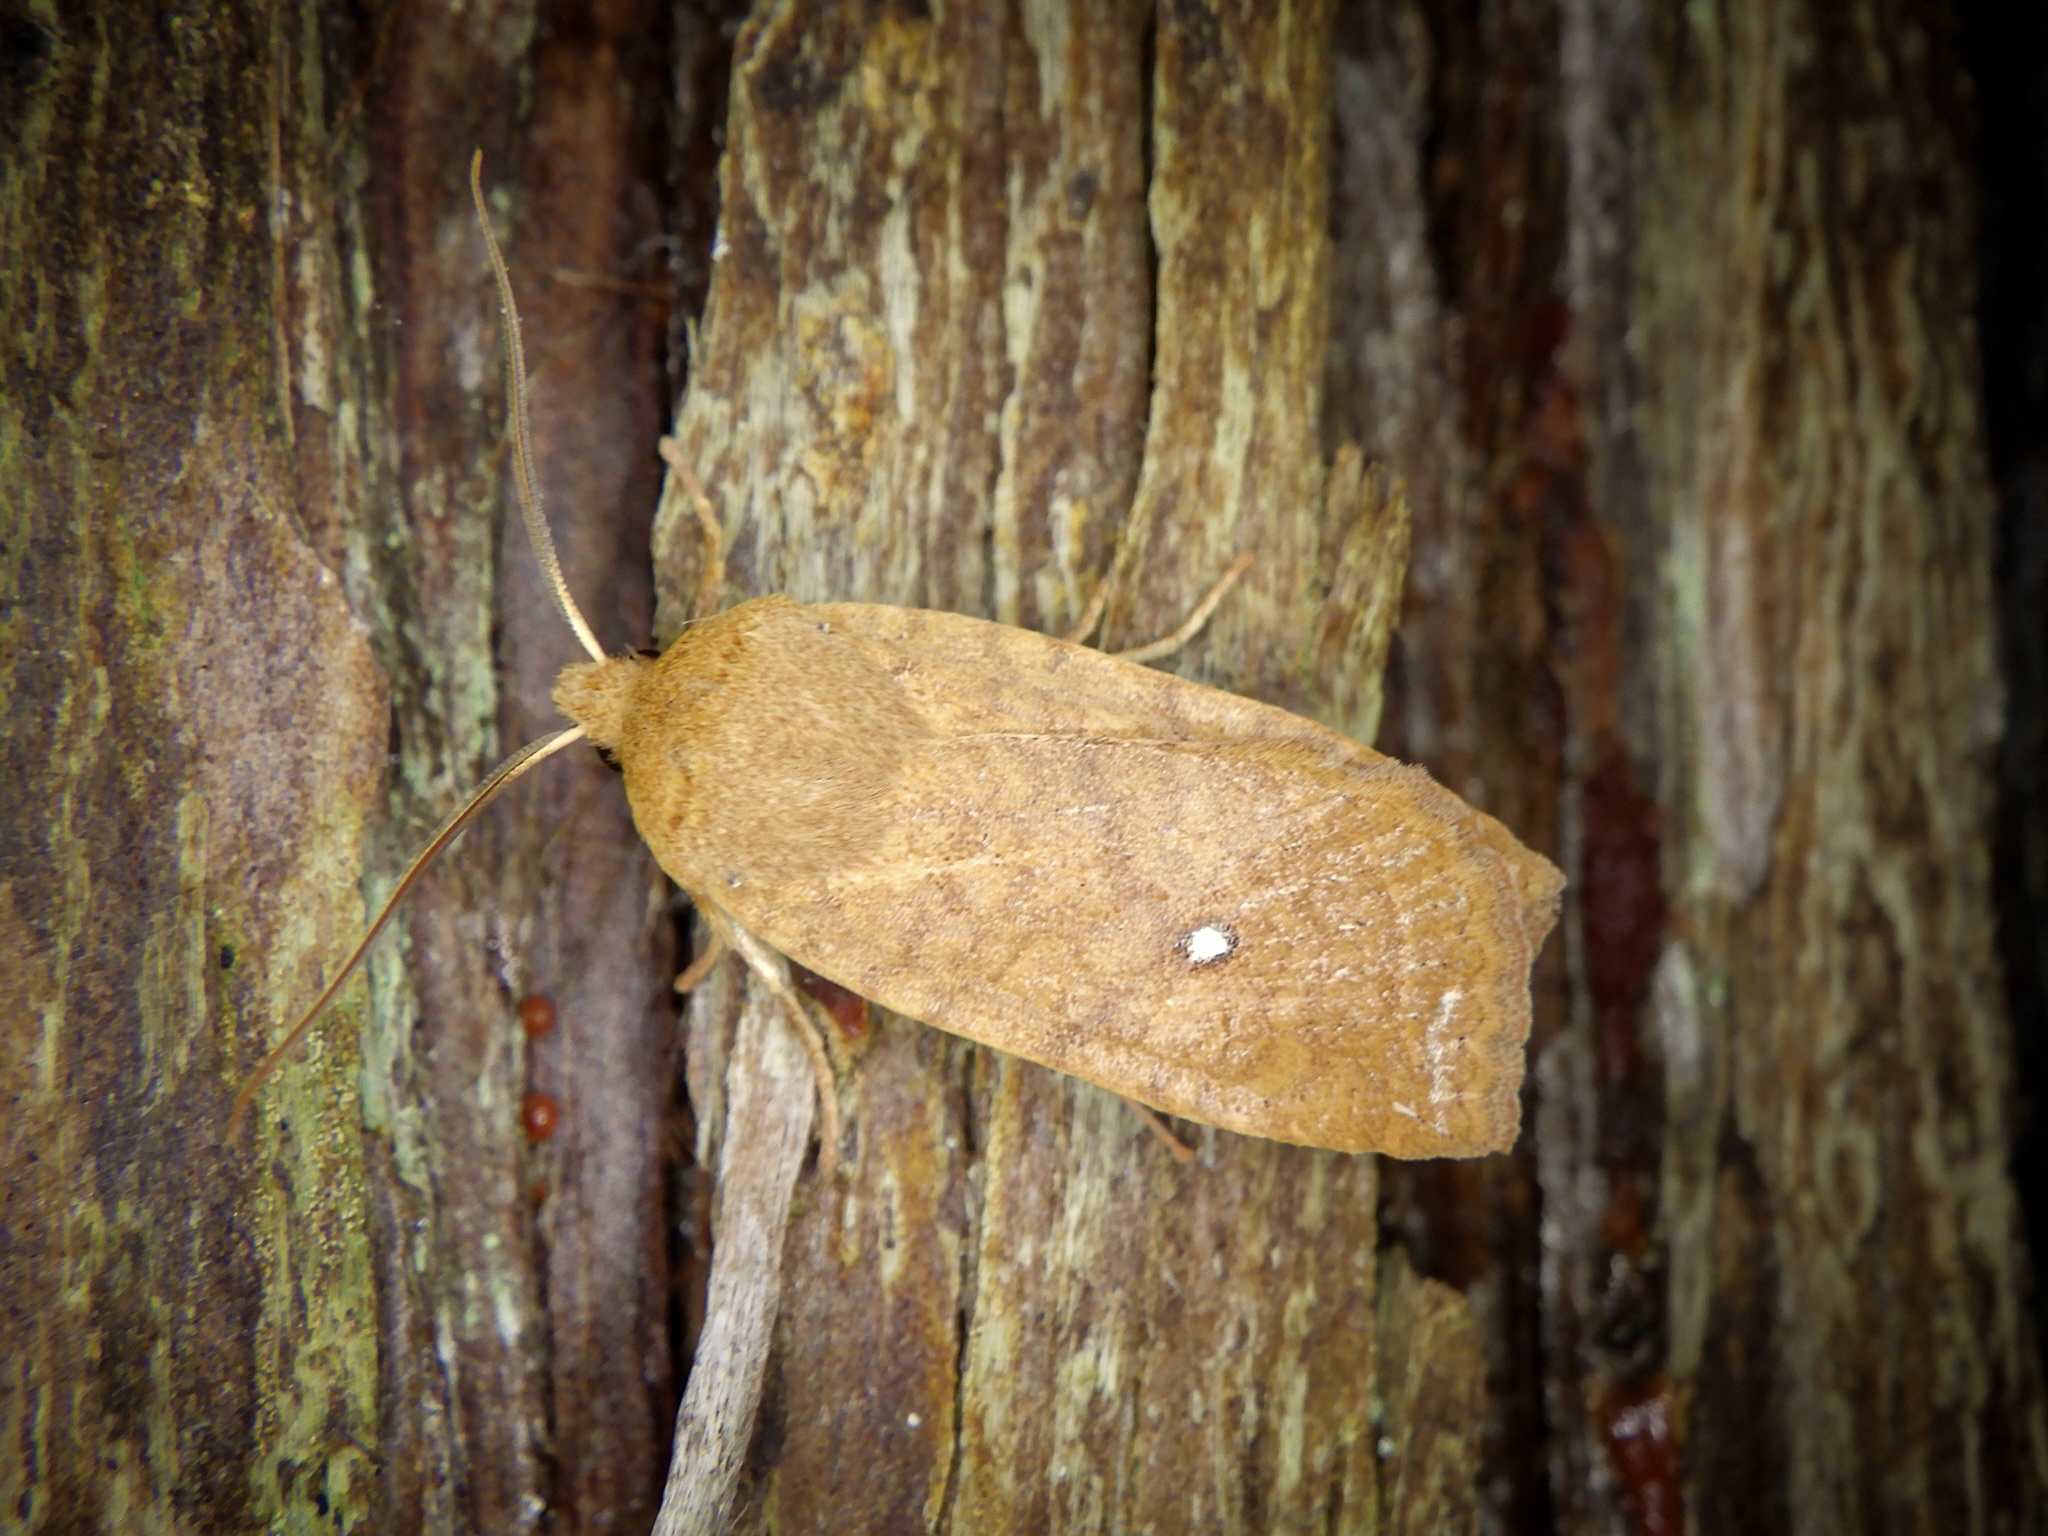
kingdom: Animalia
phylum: Arthropoda
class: Insecta
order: Lepidoptera
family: Noctuidae
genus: Conistra
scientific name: Conistra albipuncta
